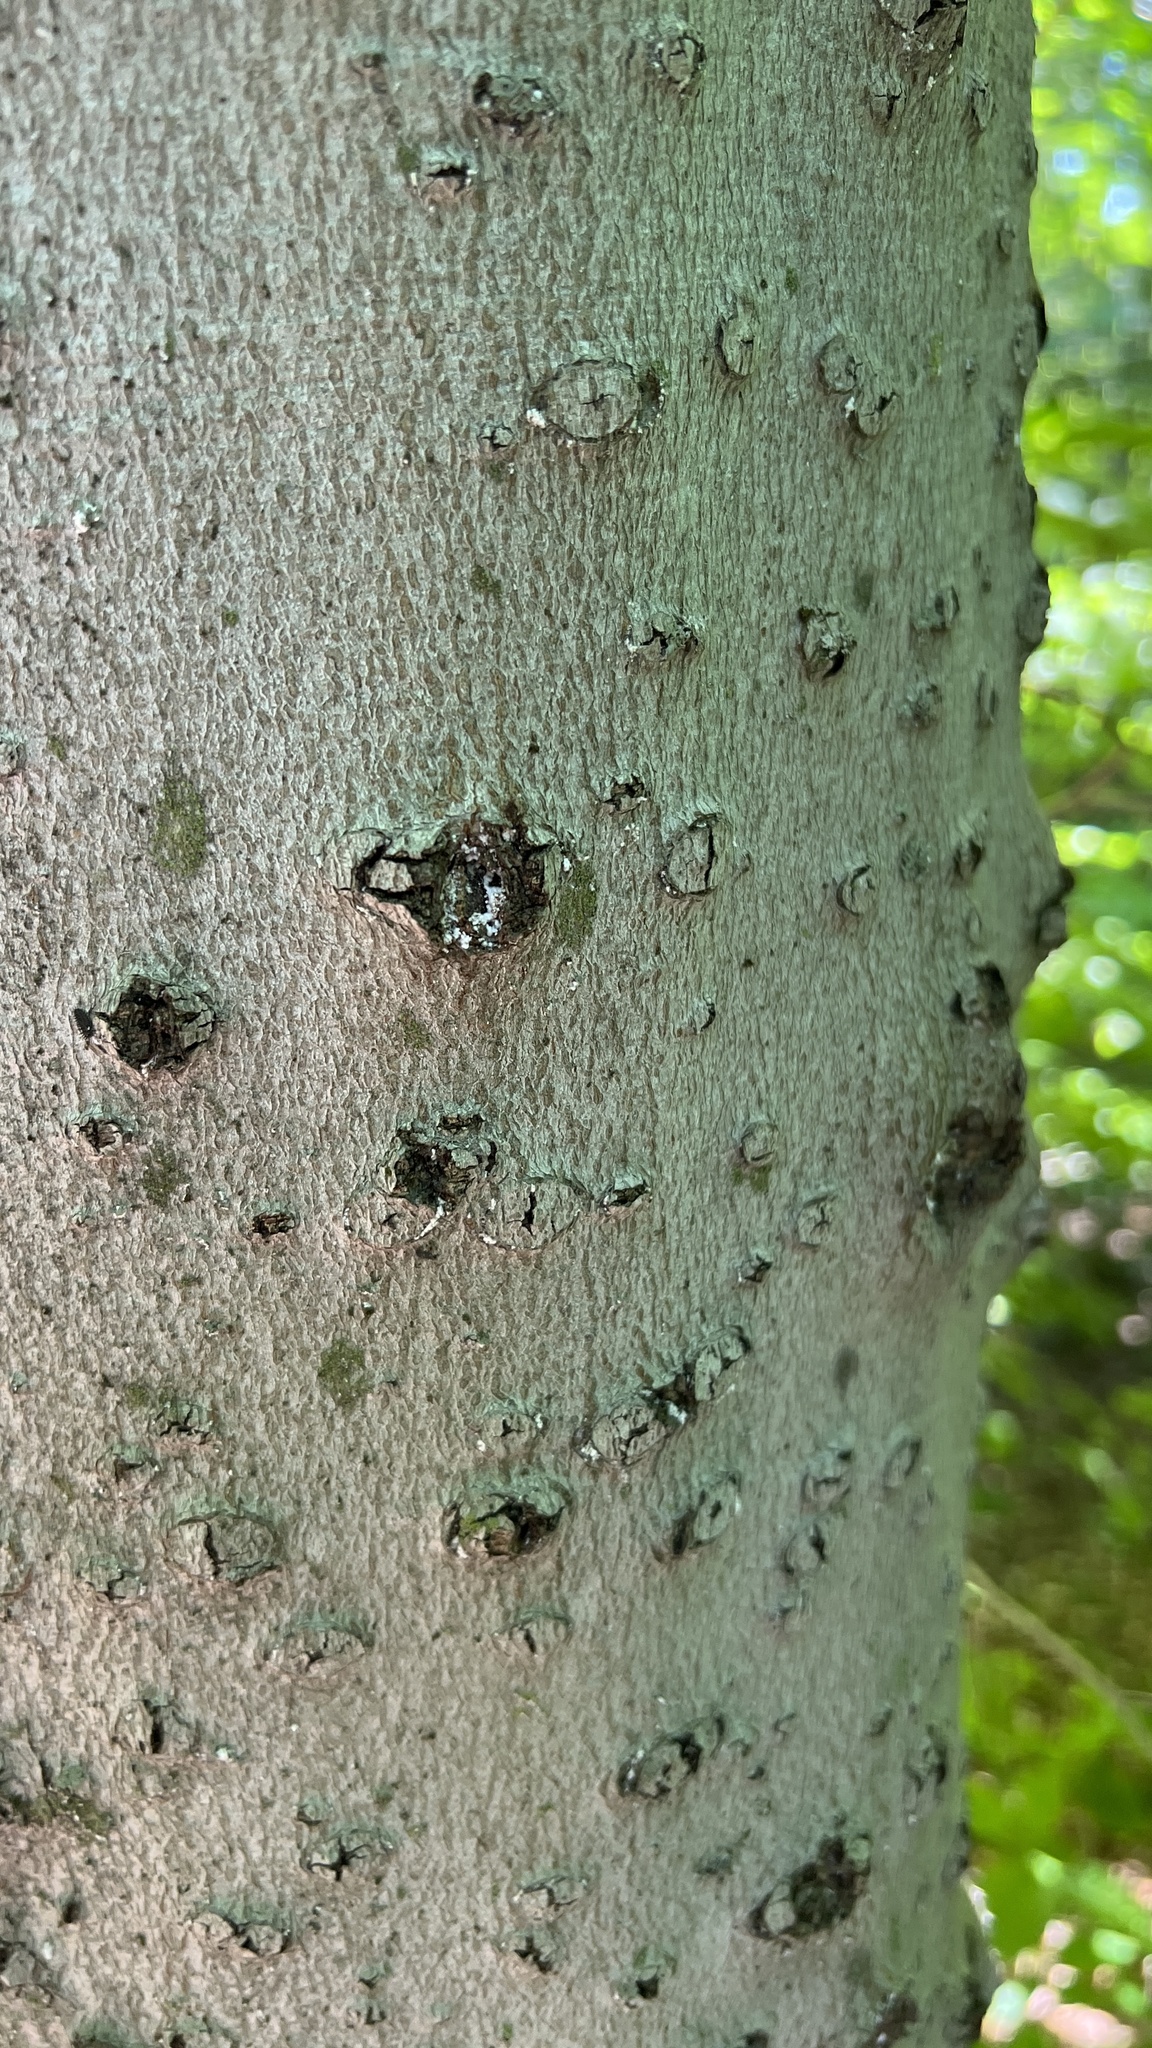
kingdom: Fungi
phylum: Ascomycota
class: Sordariomycetes
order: Hypocreales
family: Nectriaceae
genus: Neonectria
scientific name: Neonectria faginata
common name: Beech bark canker
